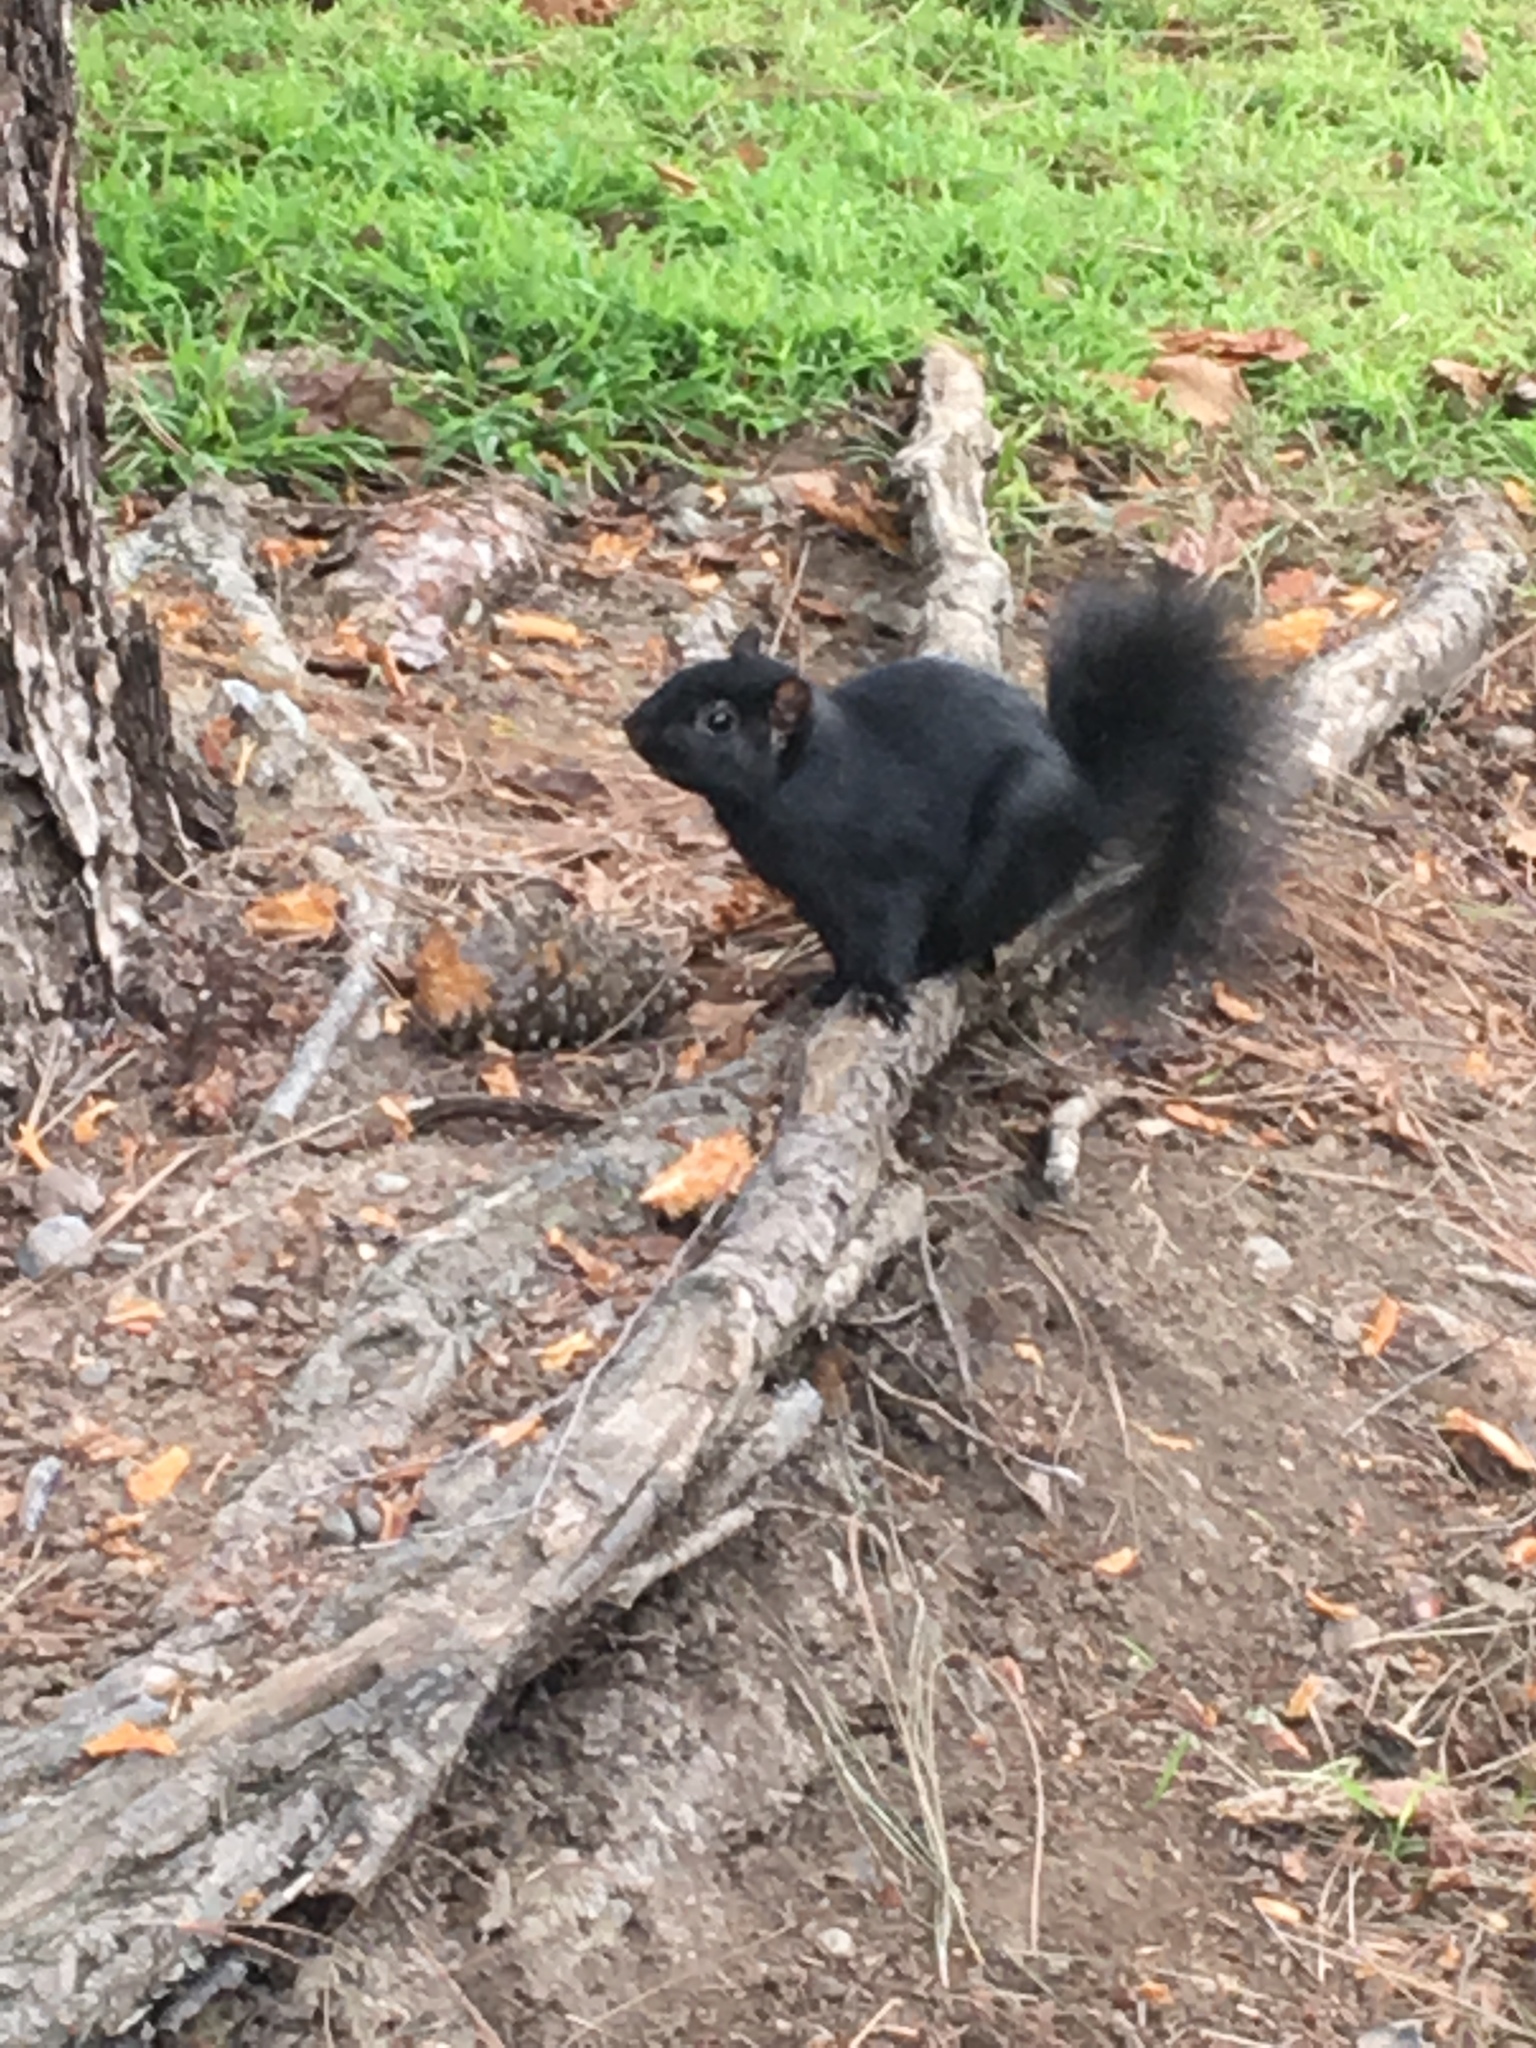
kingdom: Animalia
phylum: Chordata
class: Mammalia
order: Rodentia
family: Sciuridae
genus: Sciurus
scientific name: Sciurus carolinensis
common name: Eastern gray squirrel
